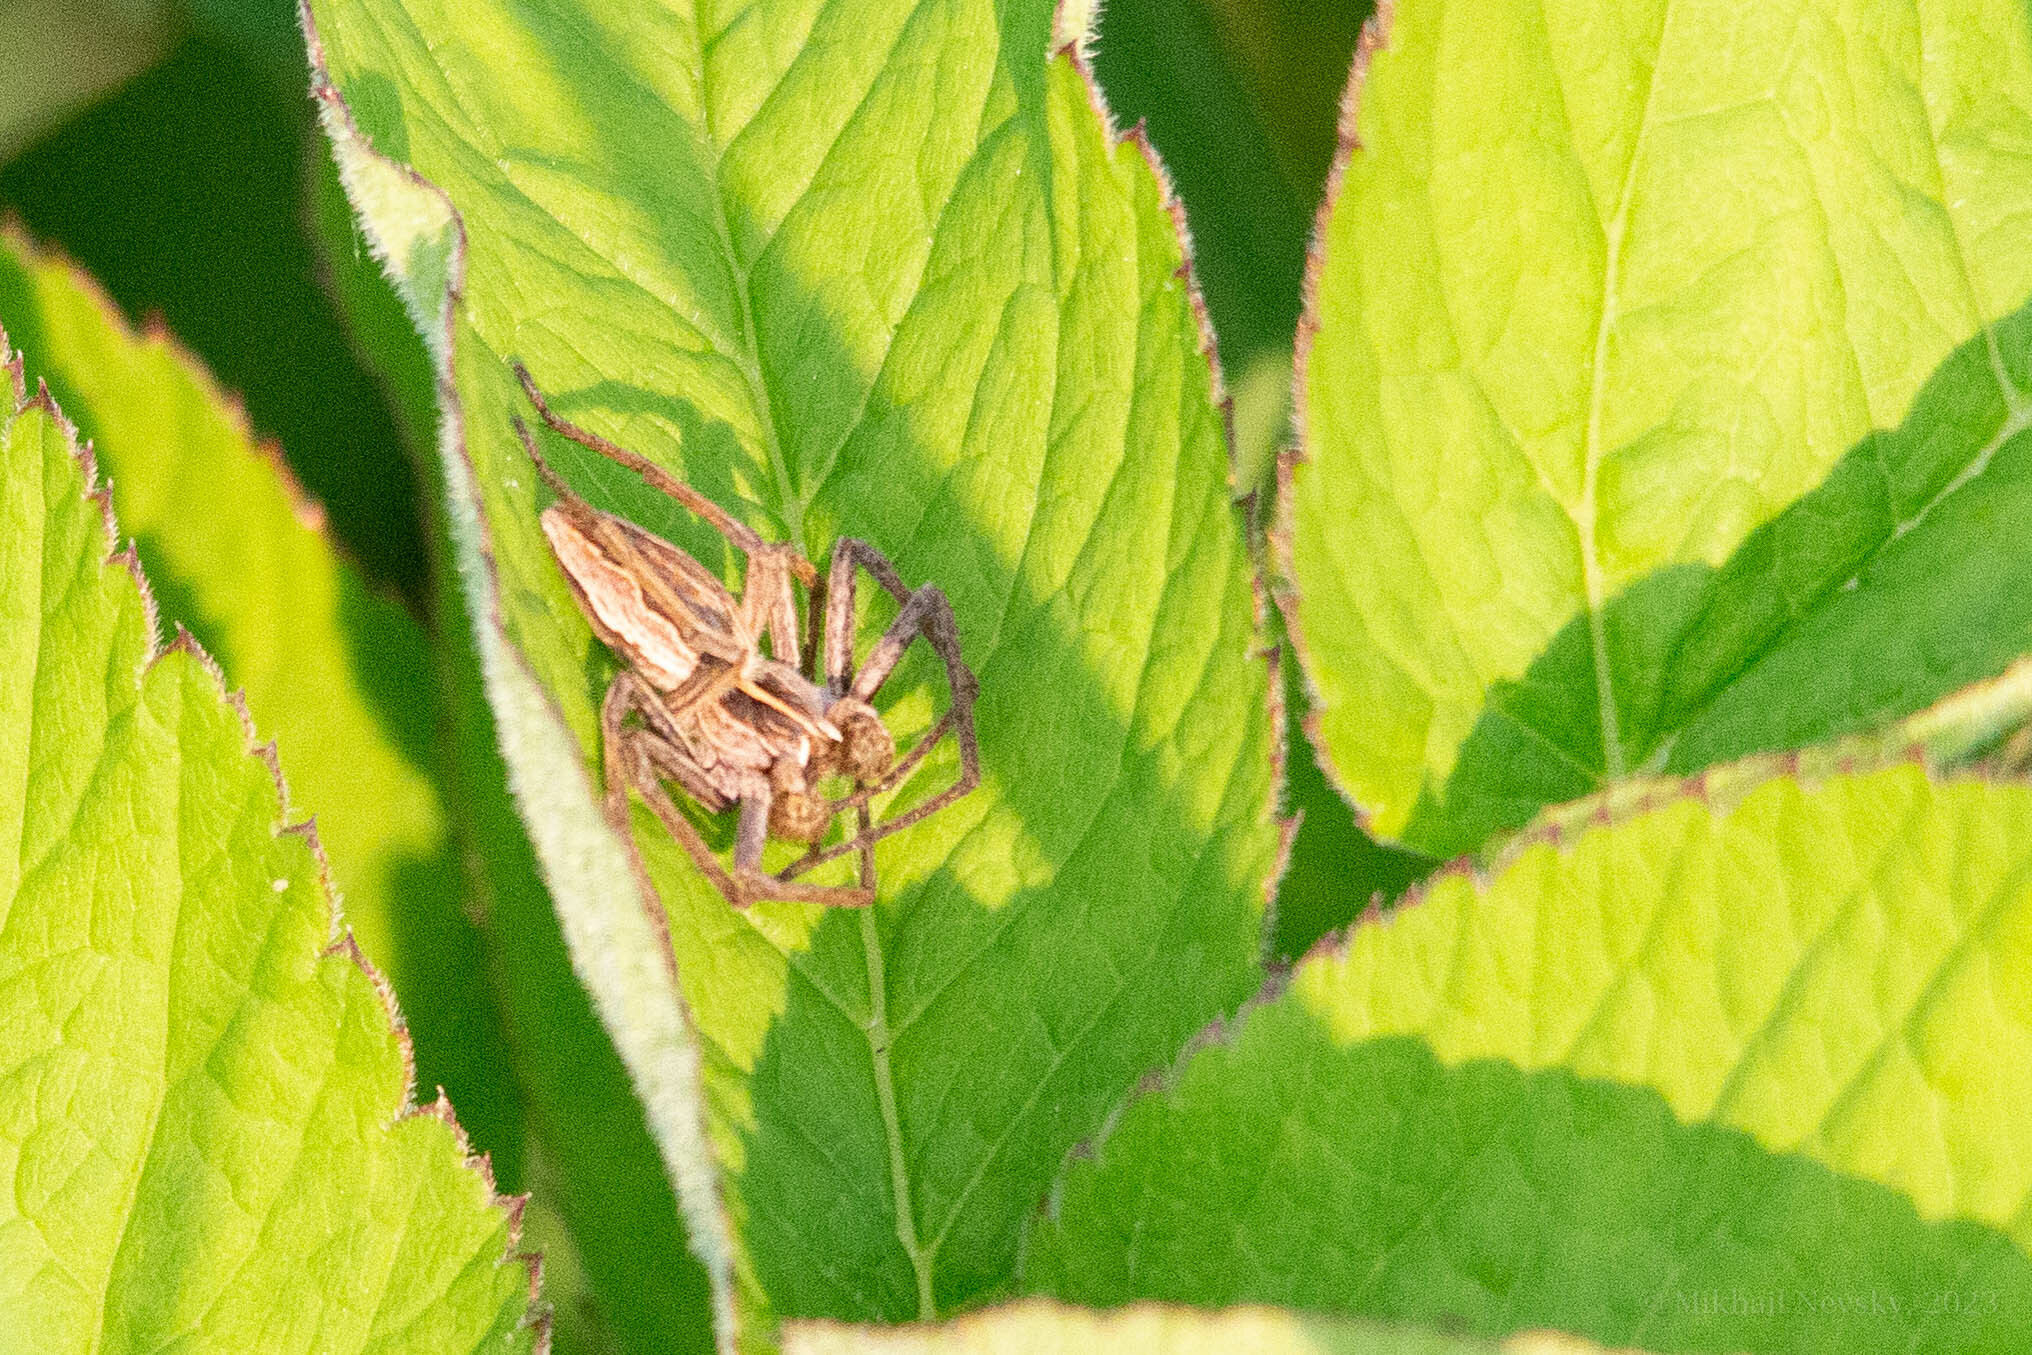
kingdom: Animalia
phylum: Arthropoda
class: Arachnida
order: Araneae
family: Pisauridae
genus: Pisaura
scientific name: Pisaura mirabilis
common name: Tent spider
